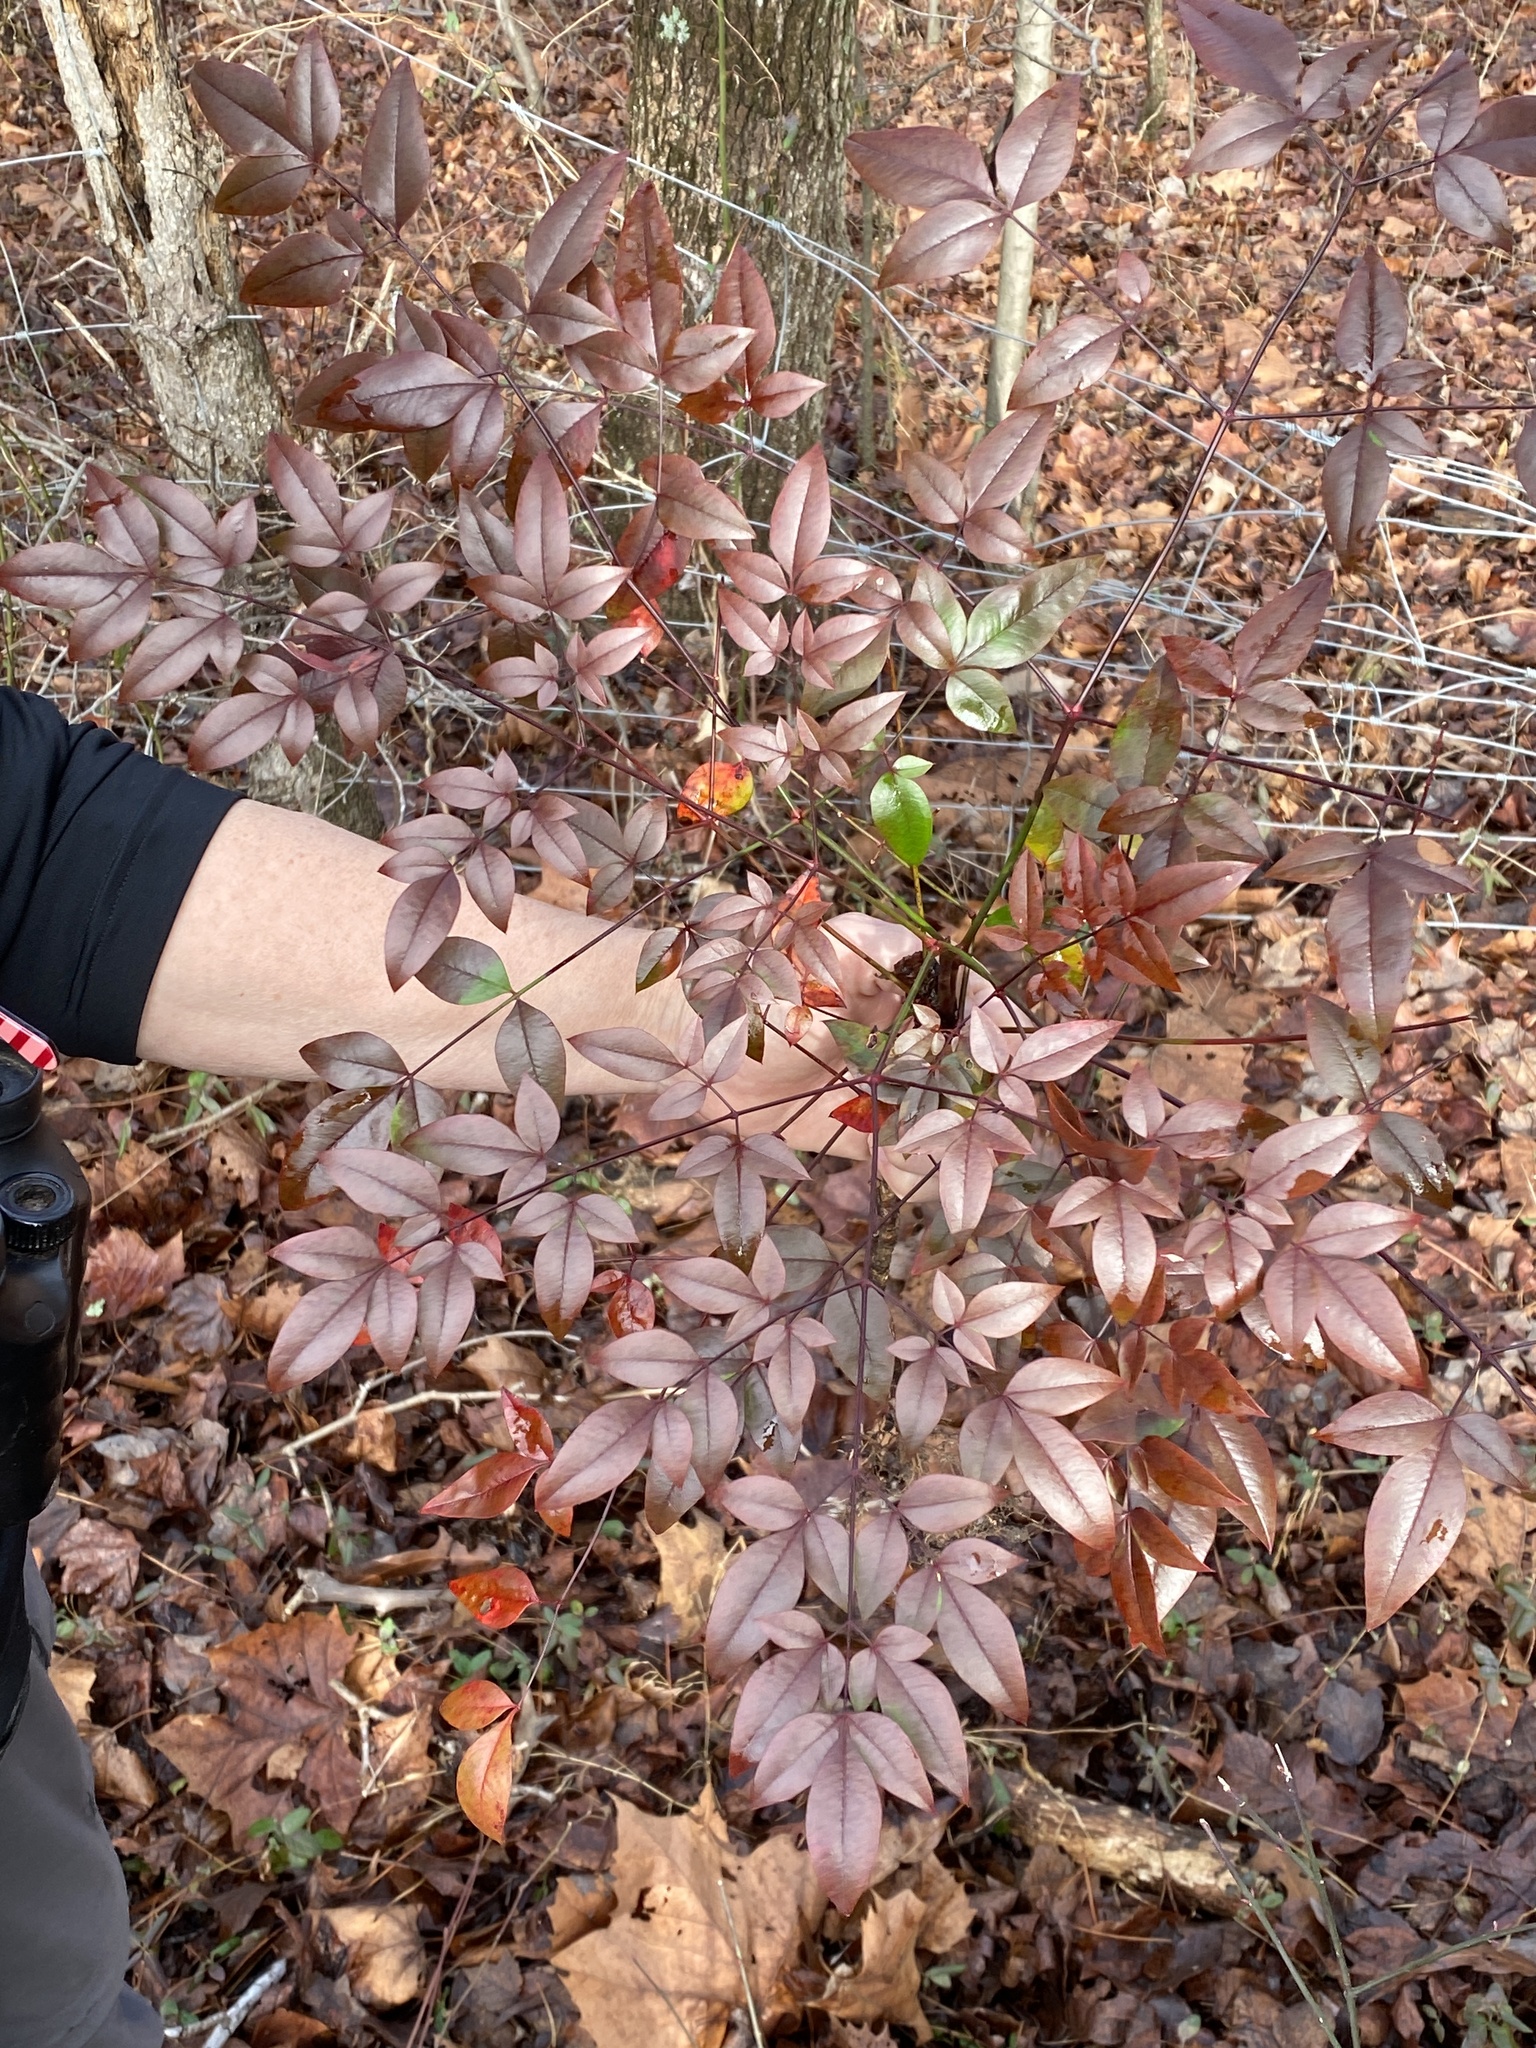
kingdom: Plantae
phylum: Tracheophyta
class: Magnoliopsida
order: Ranunculales
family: Berberidaceae
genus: Nandina
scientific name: Nandina domestica
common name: Sacred bamboo
